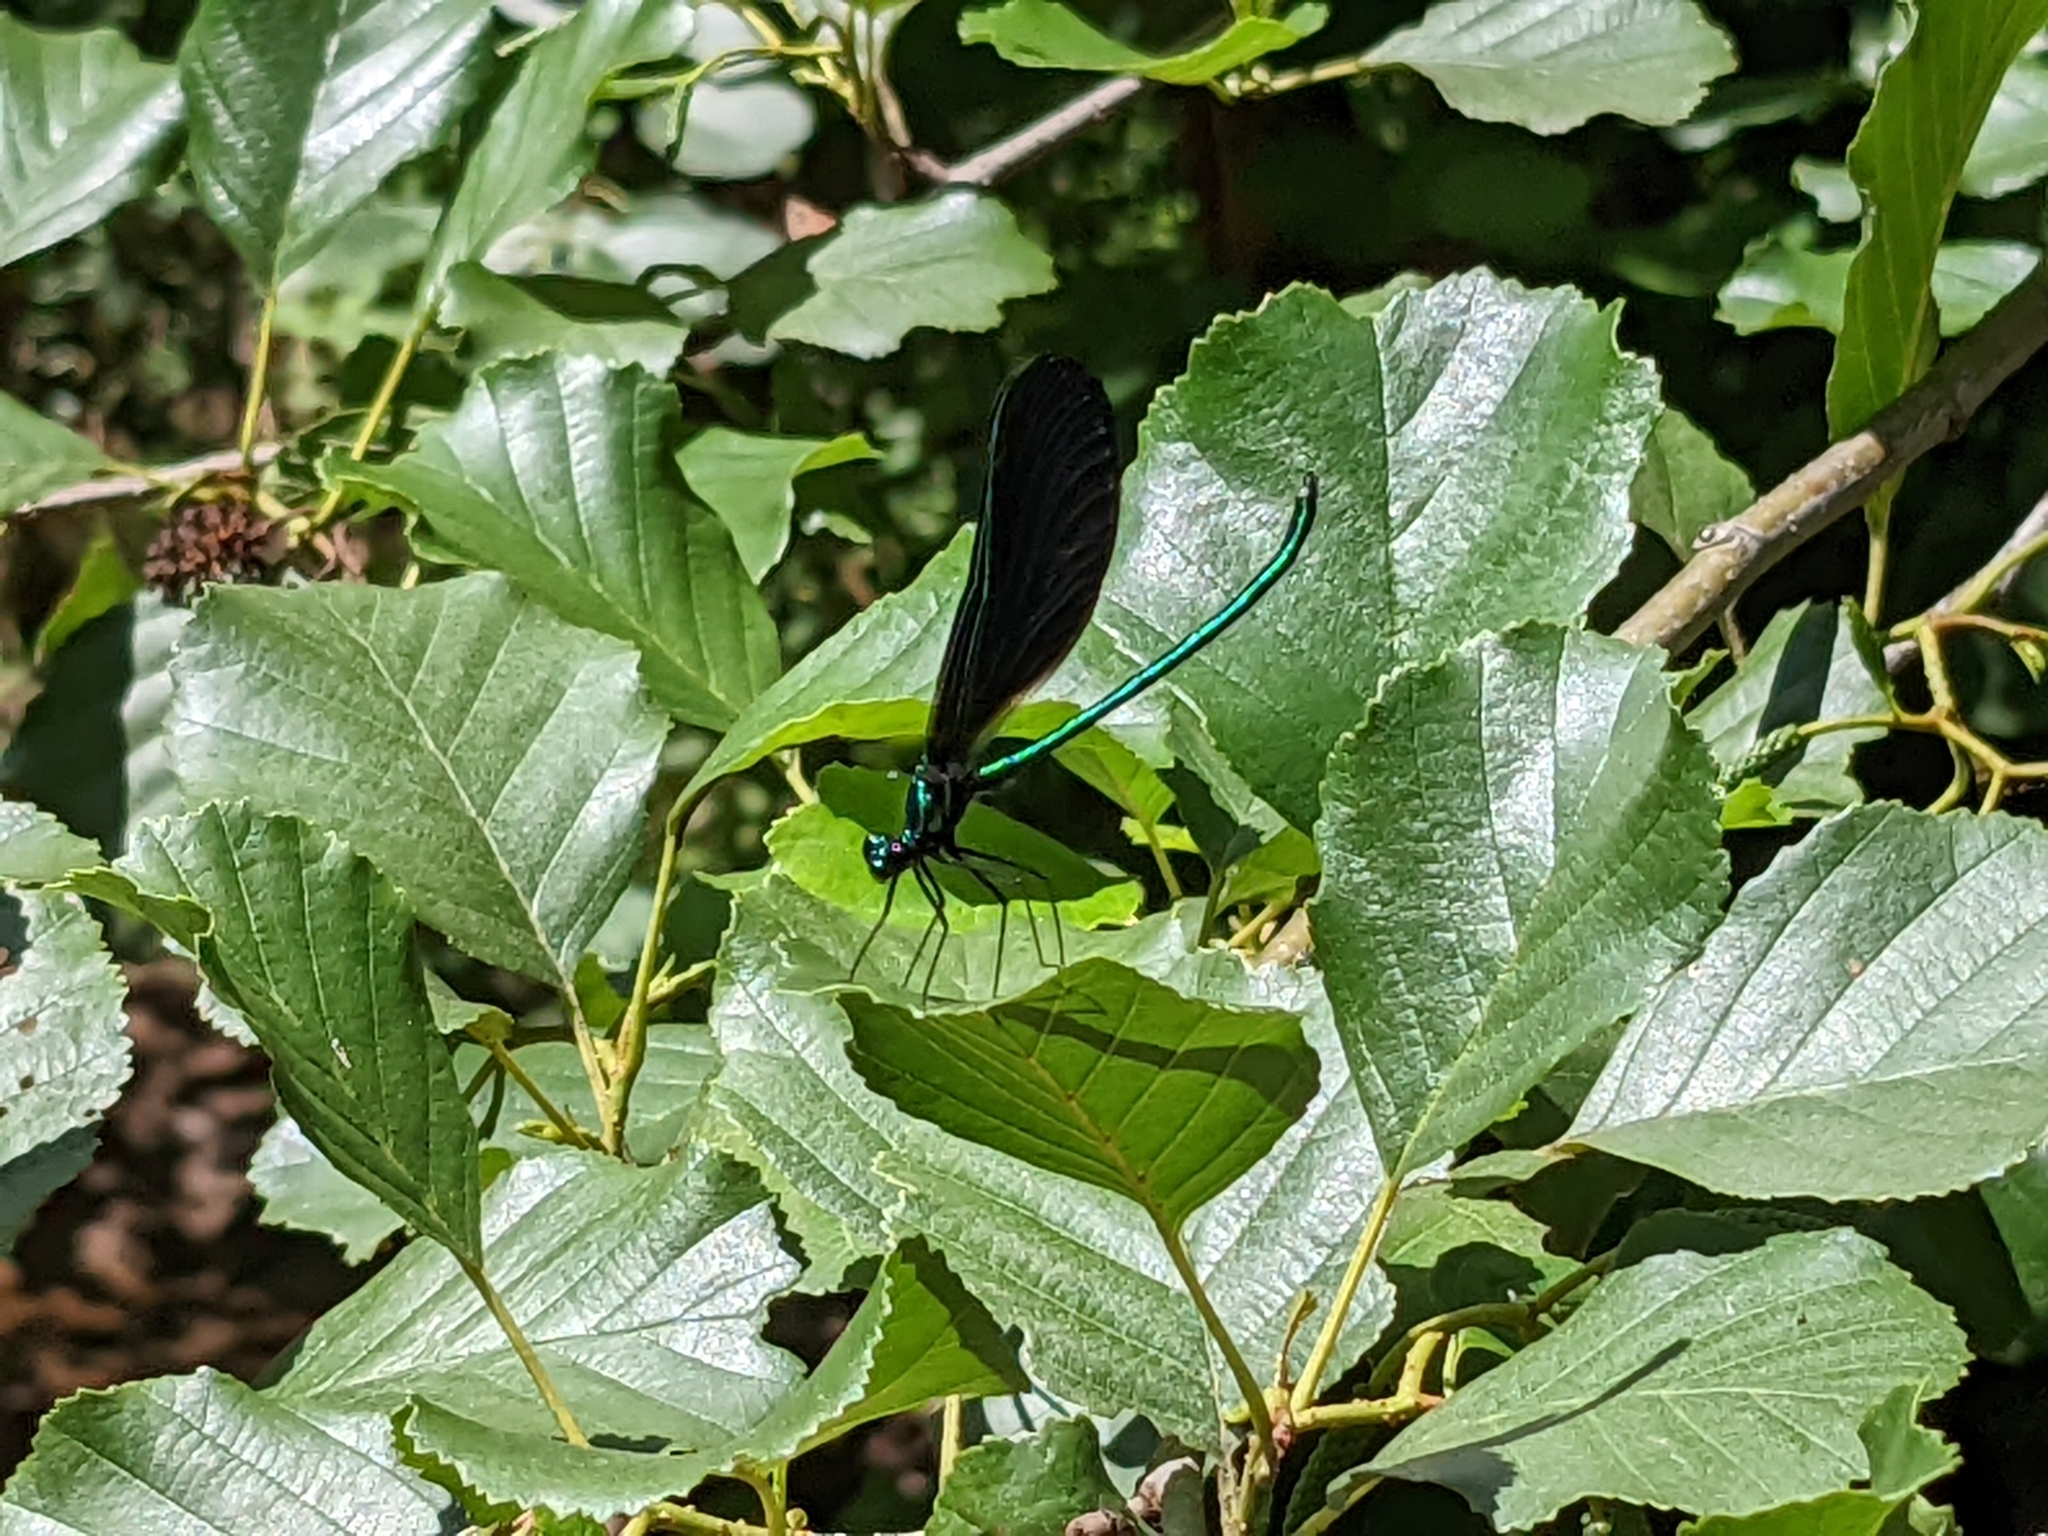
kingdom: Animalia
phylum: Arthropoda
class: Insecta
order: Odonata
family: Calopterygidae
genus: Calopteryx
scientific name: Calopteryx maculata
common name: Ebony jewelwing
